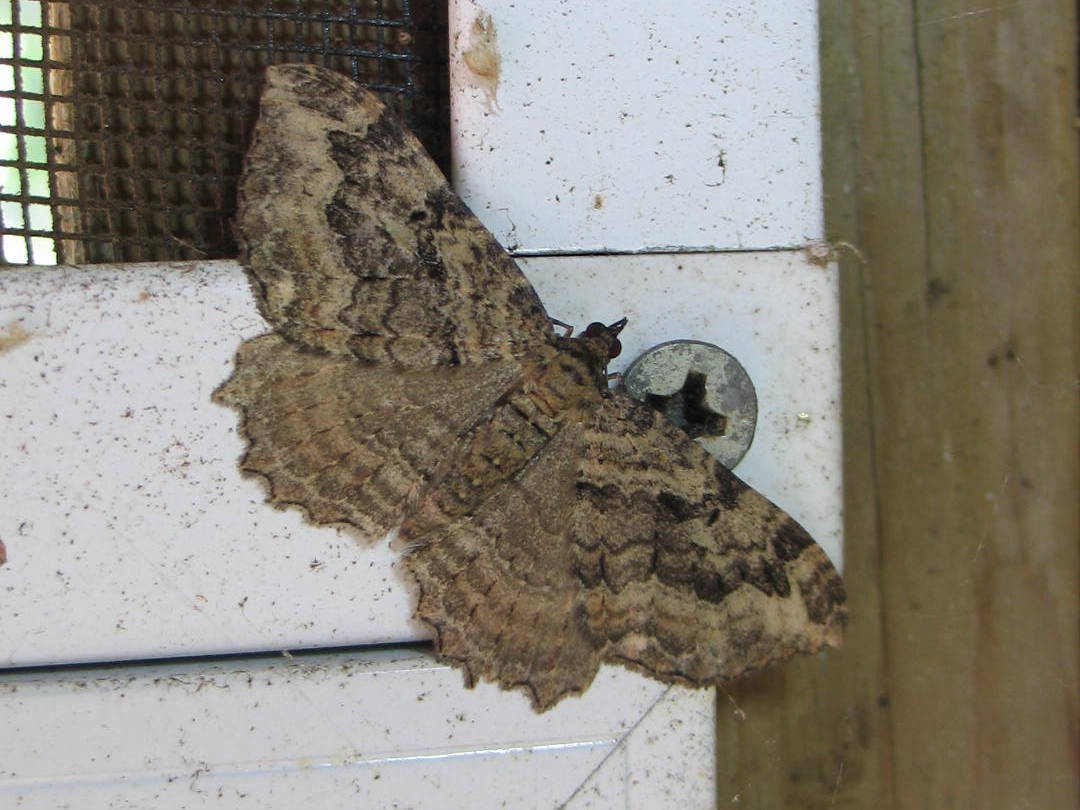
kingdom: Animalia
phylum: Arthropoda
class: Insecta
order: Lepidoptera
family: Geometridae
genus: Rheumaptera
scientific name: Rheumaptera
